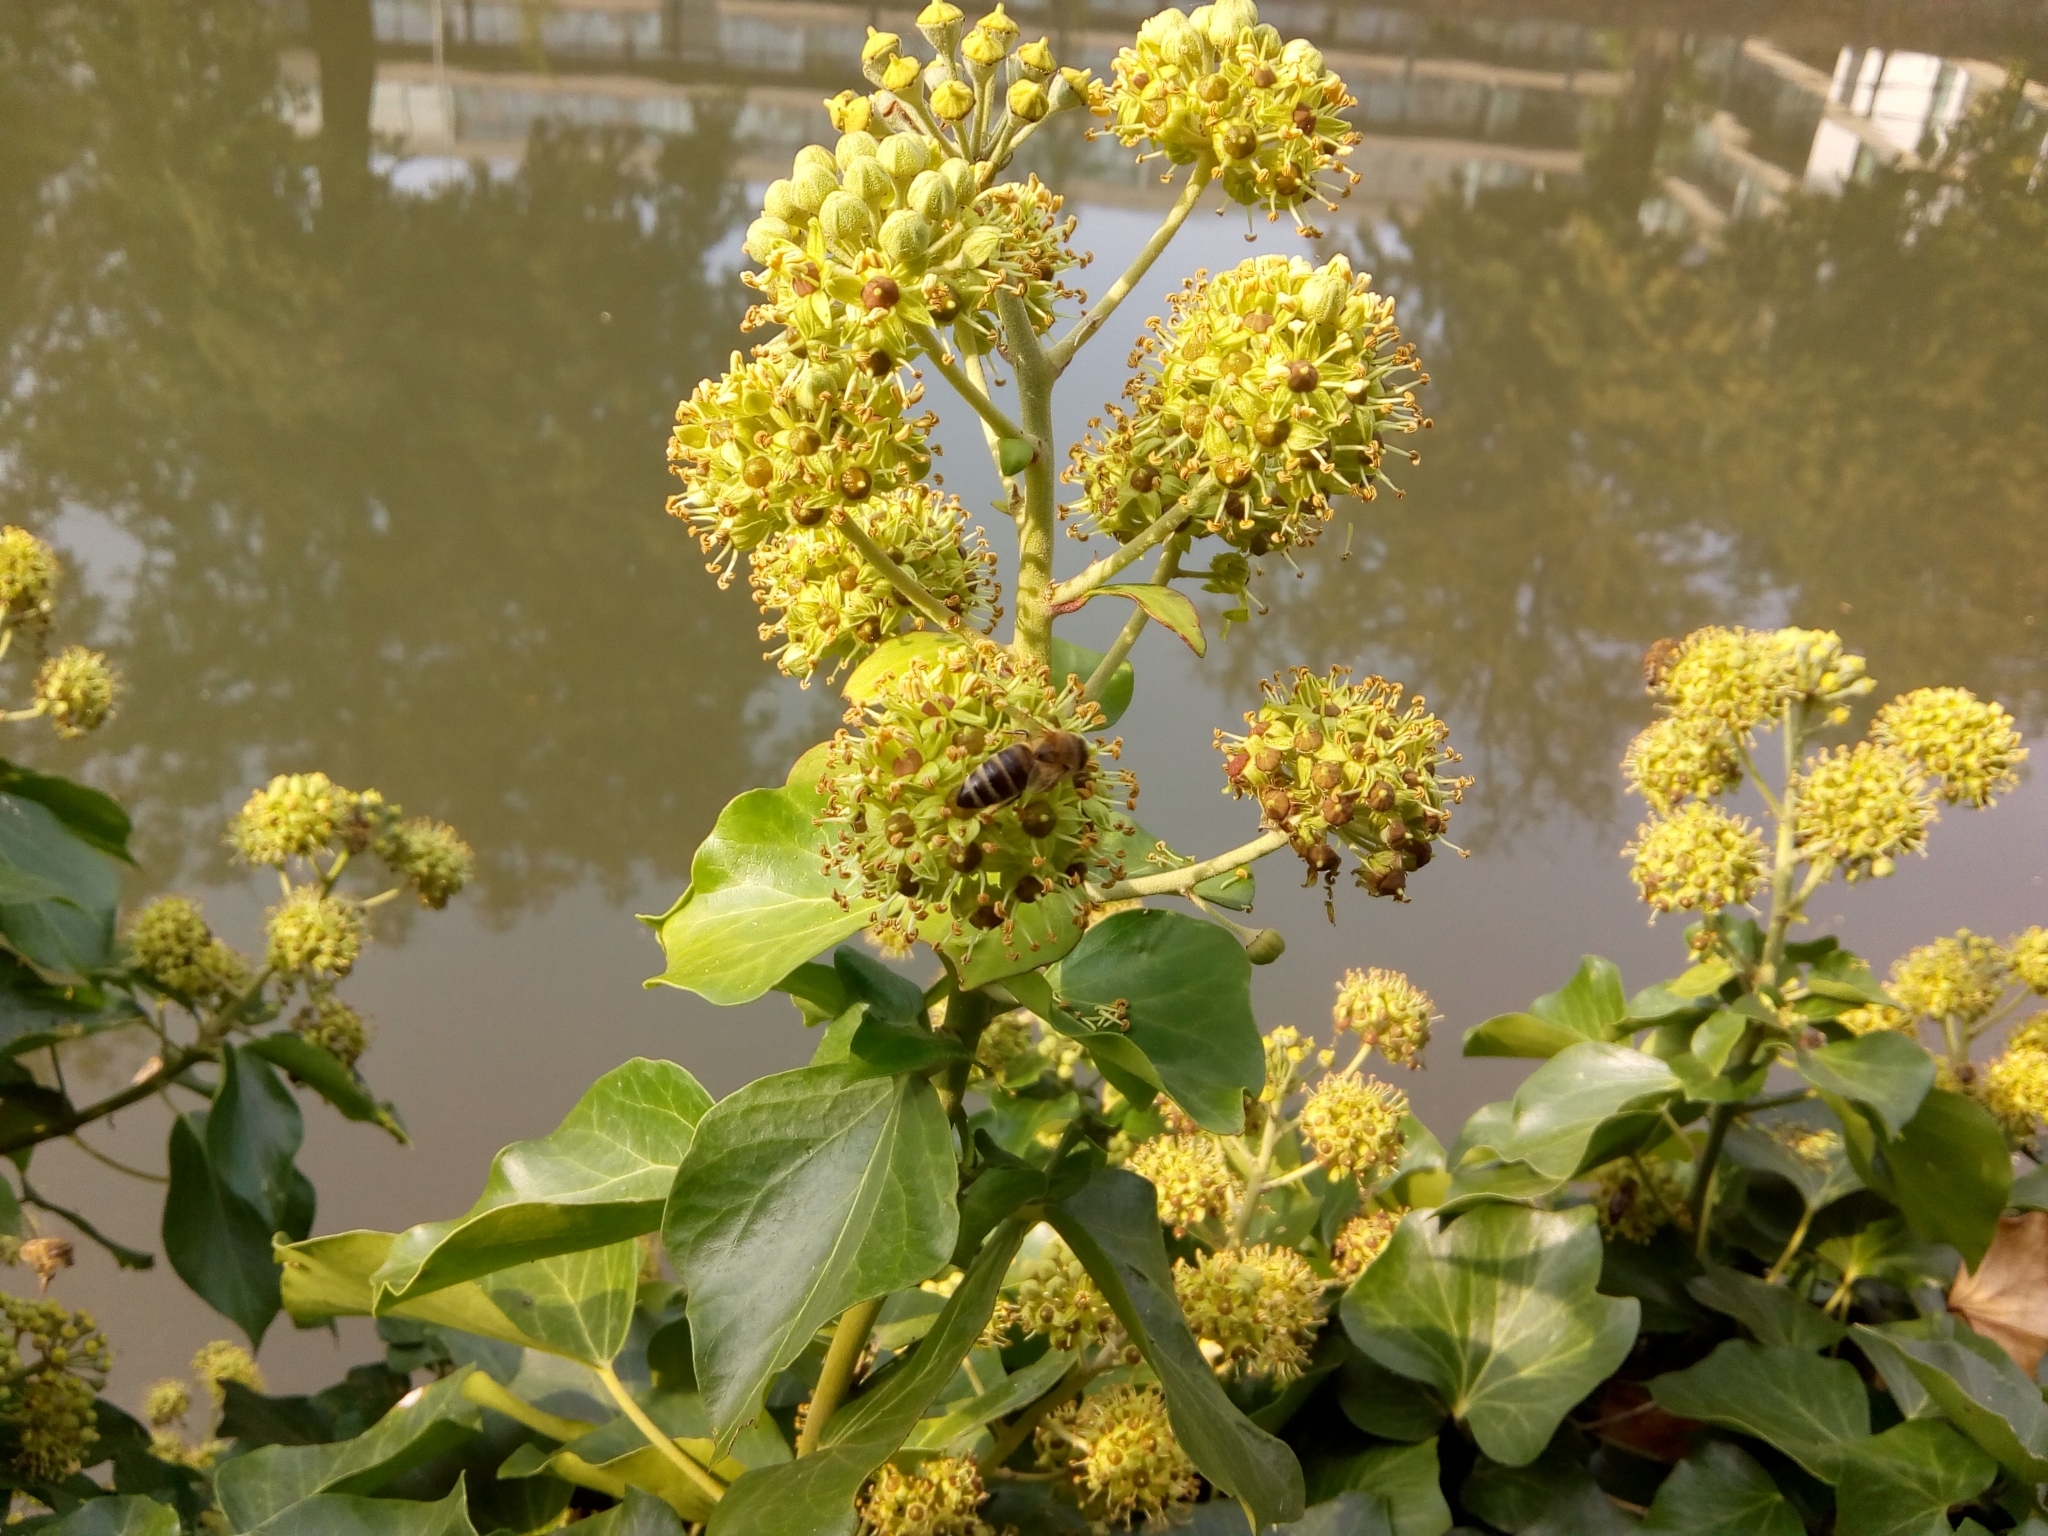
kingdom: Animalia
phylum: Arthropoda
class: Insecta
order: Hymenoptera
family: Apidae
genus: Apis
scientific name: Apis mellifera
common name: Honey bee
